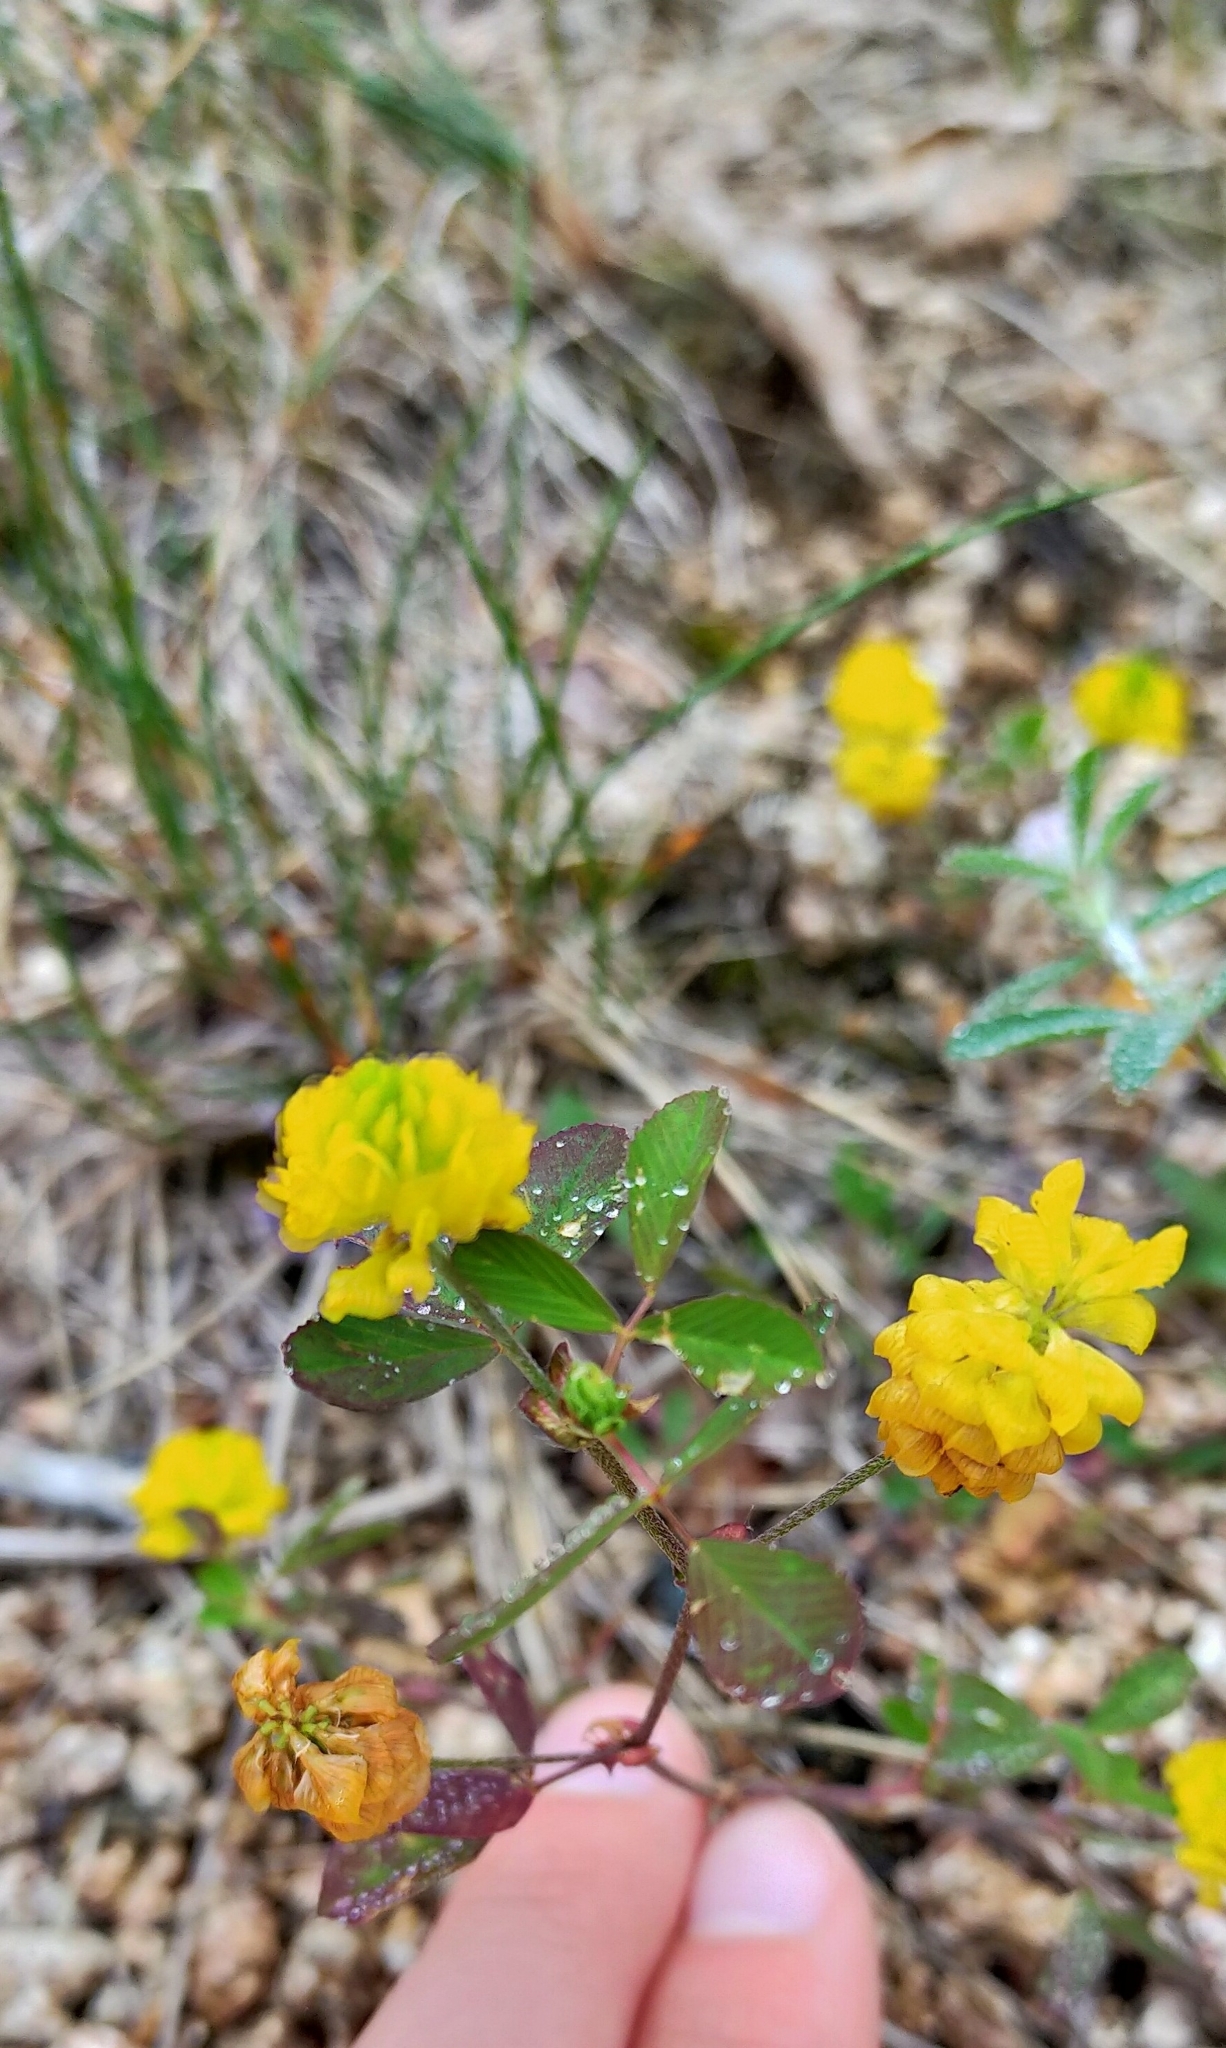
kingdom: Plantae
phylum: Tracheophyta
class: Magnoliopsida
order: Fabales
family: Fabaceae
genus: Trifolium
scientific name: Trifolium campestre
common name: Field clover
